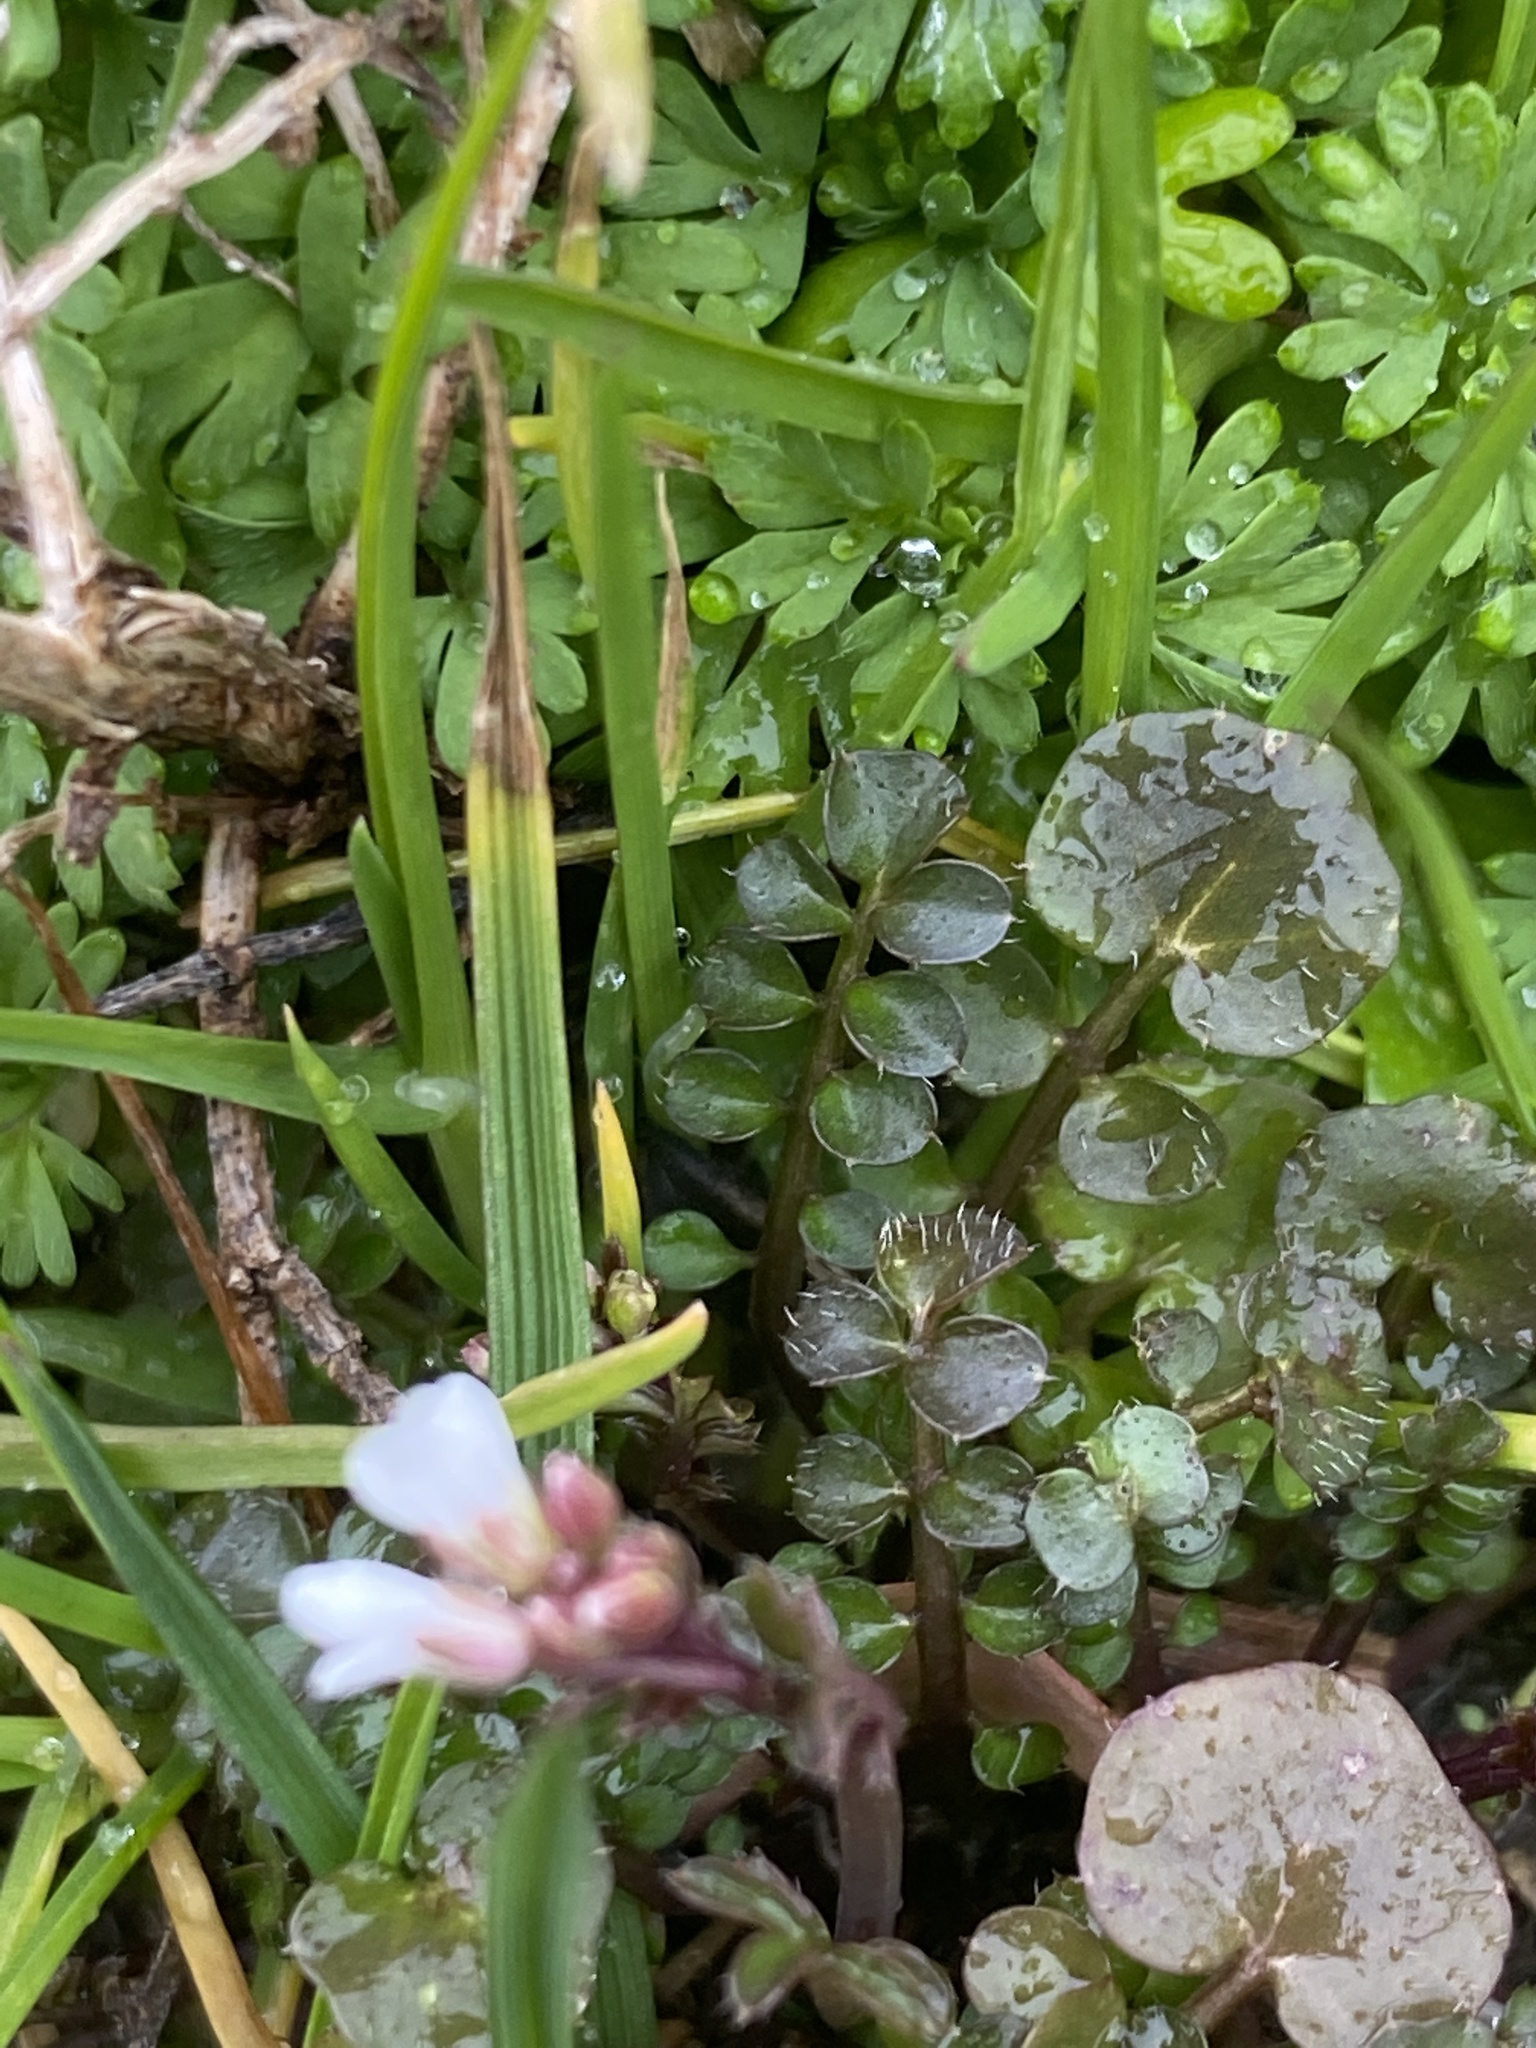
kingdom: Plantae
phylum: Tracheophyta
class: Magnoliopsida
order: Brassicales
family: Brassicaceae
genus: Cardamine
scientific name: Cardamine hirsuta
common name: Hairy bittercress
